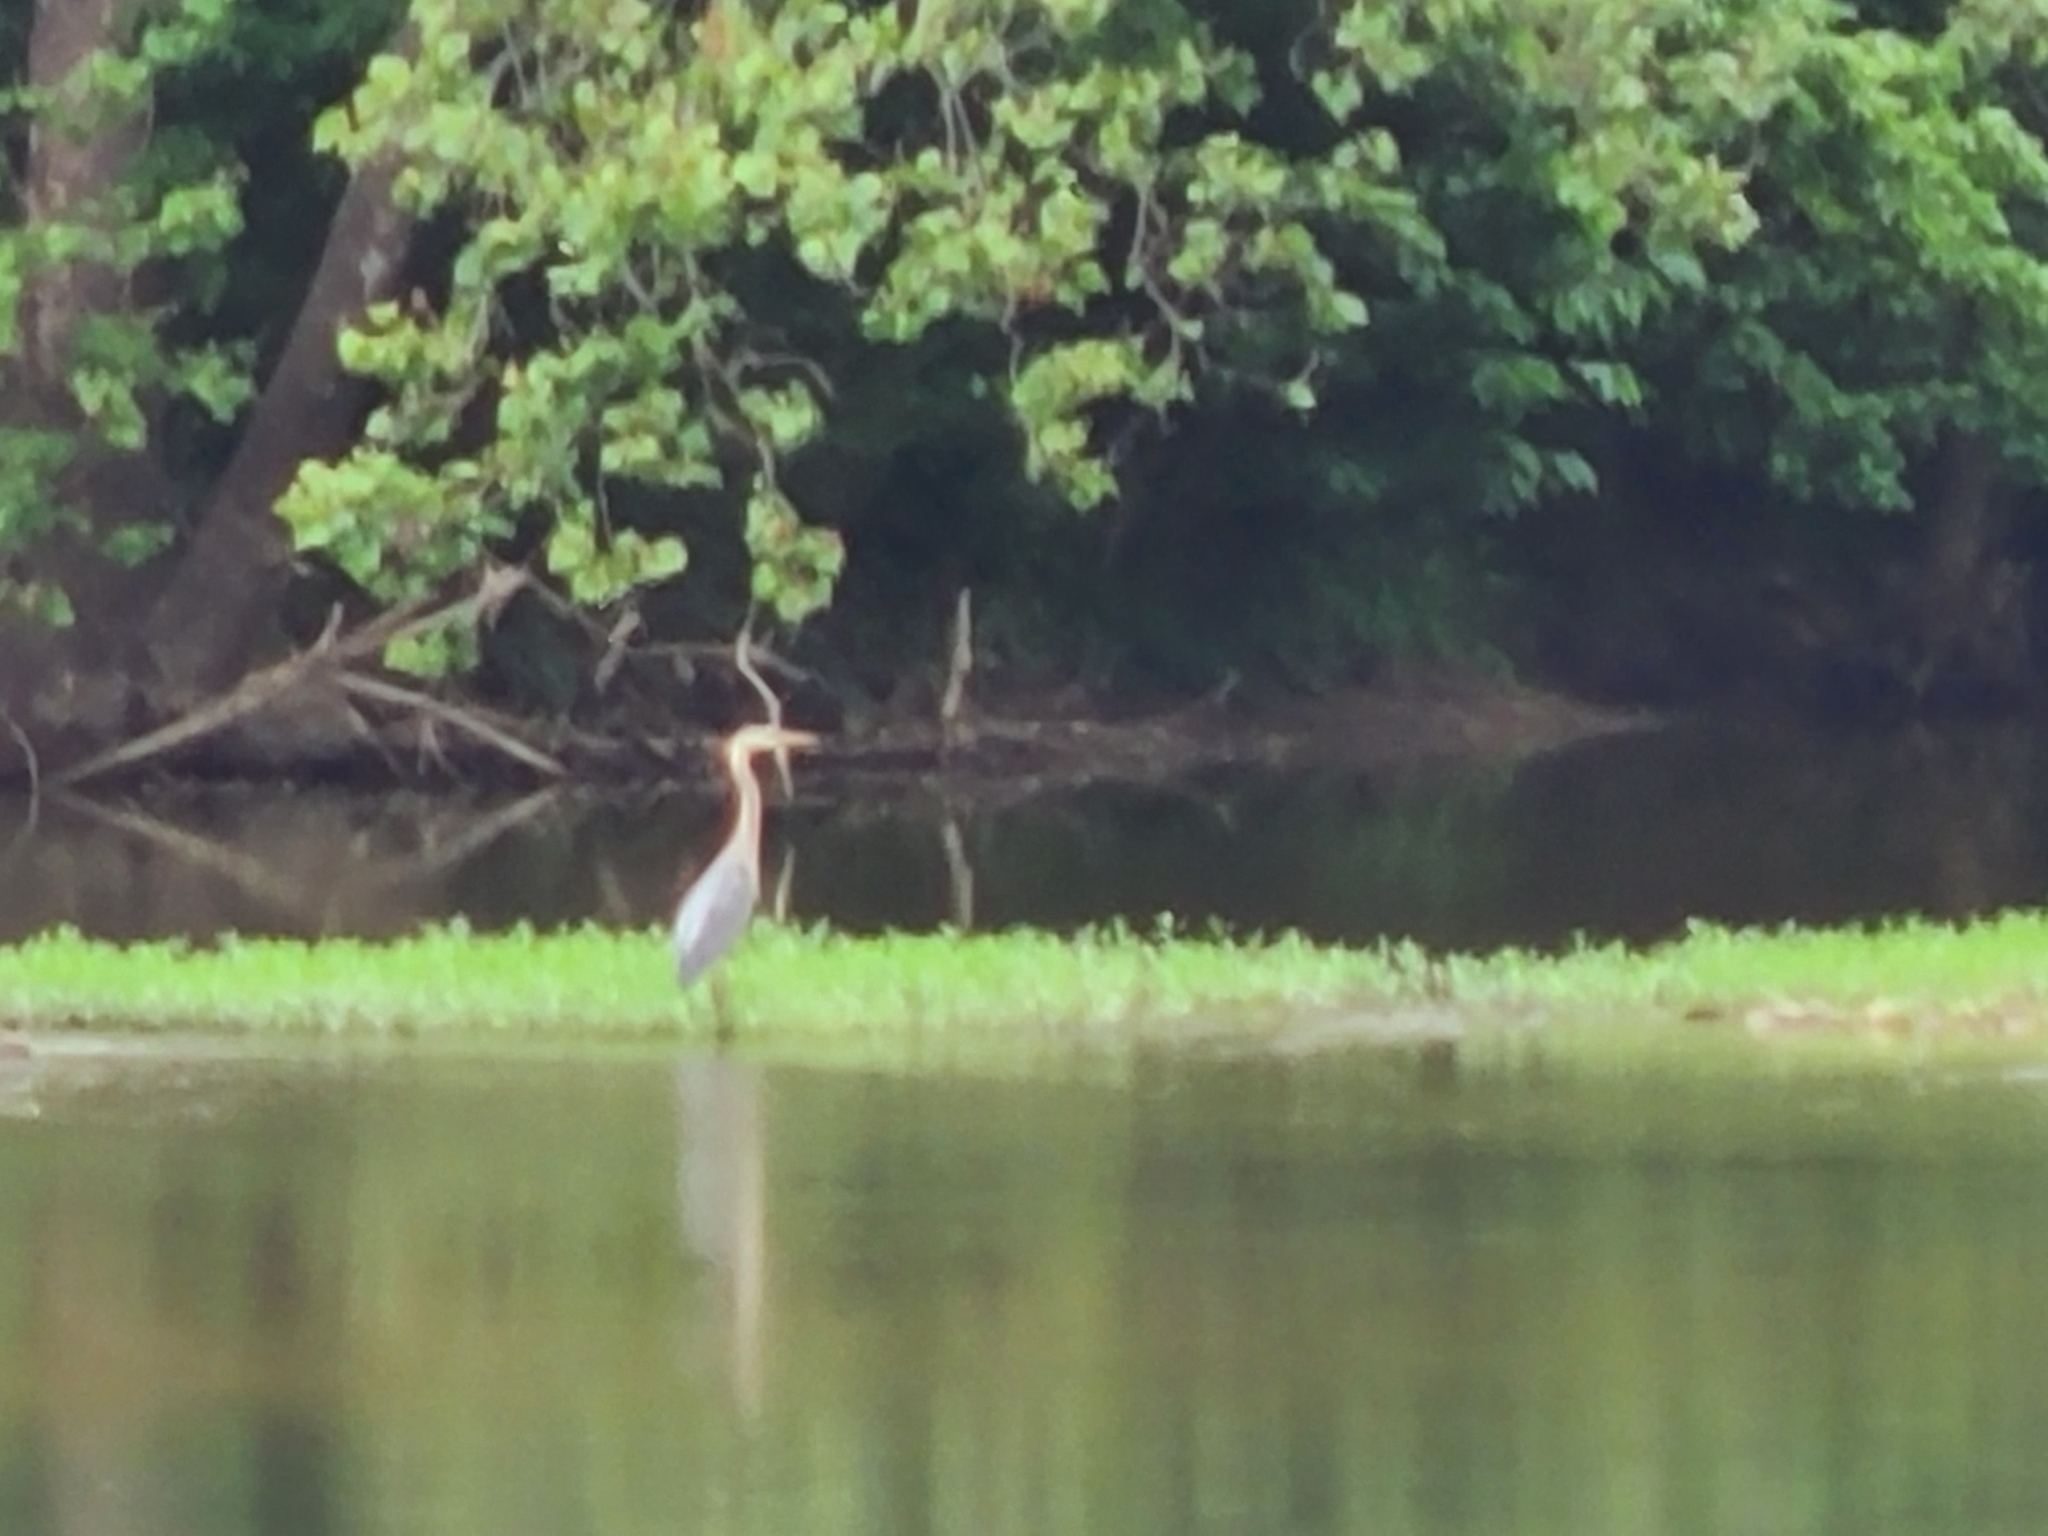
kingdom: Animalia
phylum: Chordata
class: Aves
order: Pelecaniformes
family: Ardeidae
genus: Ardea
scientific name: Ardea herodias
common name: Great blue heron
